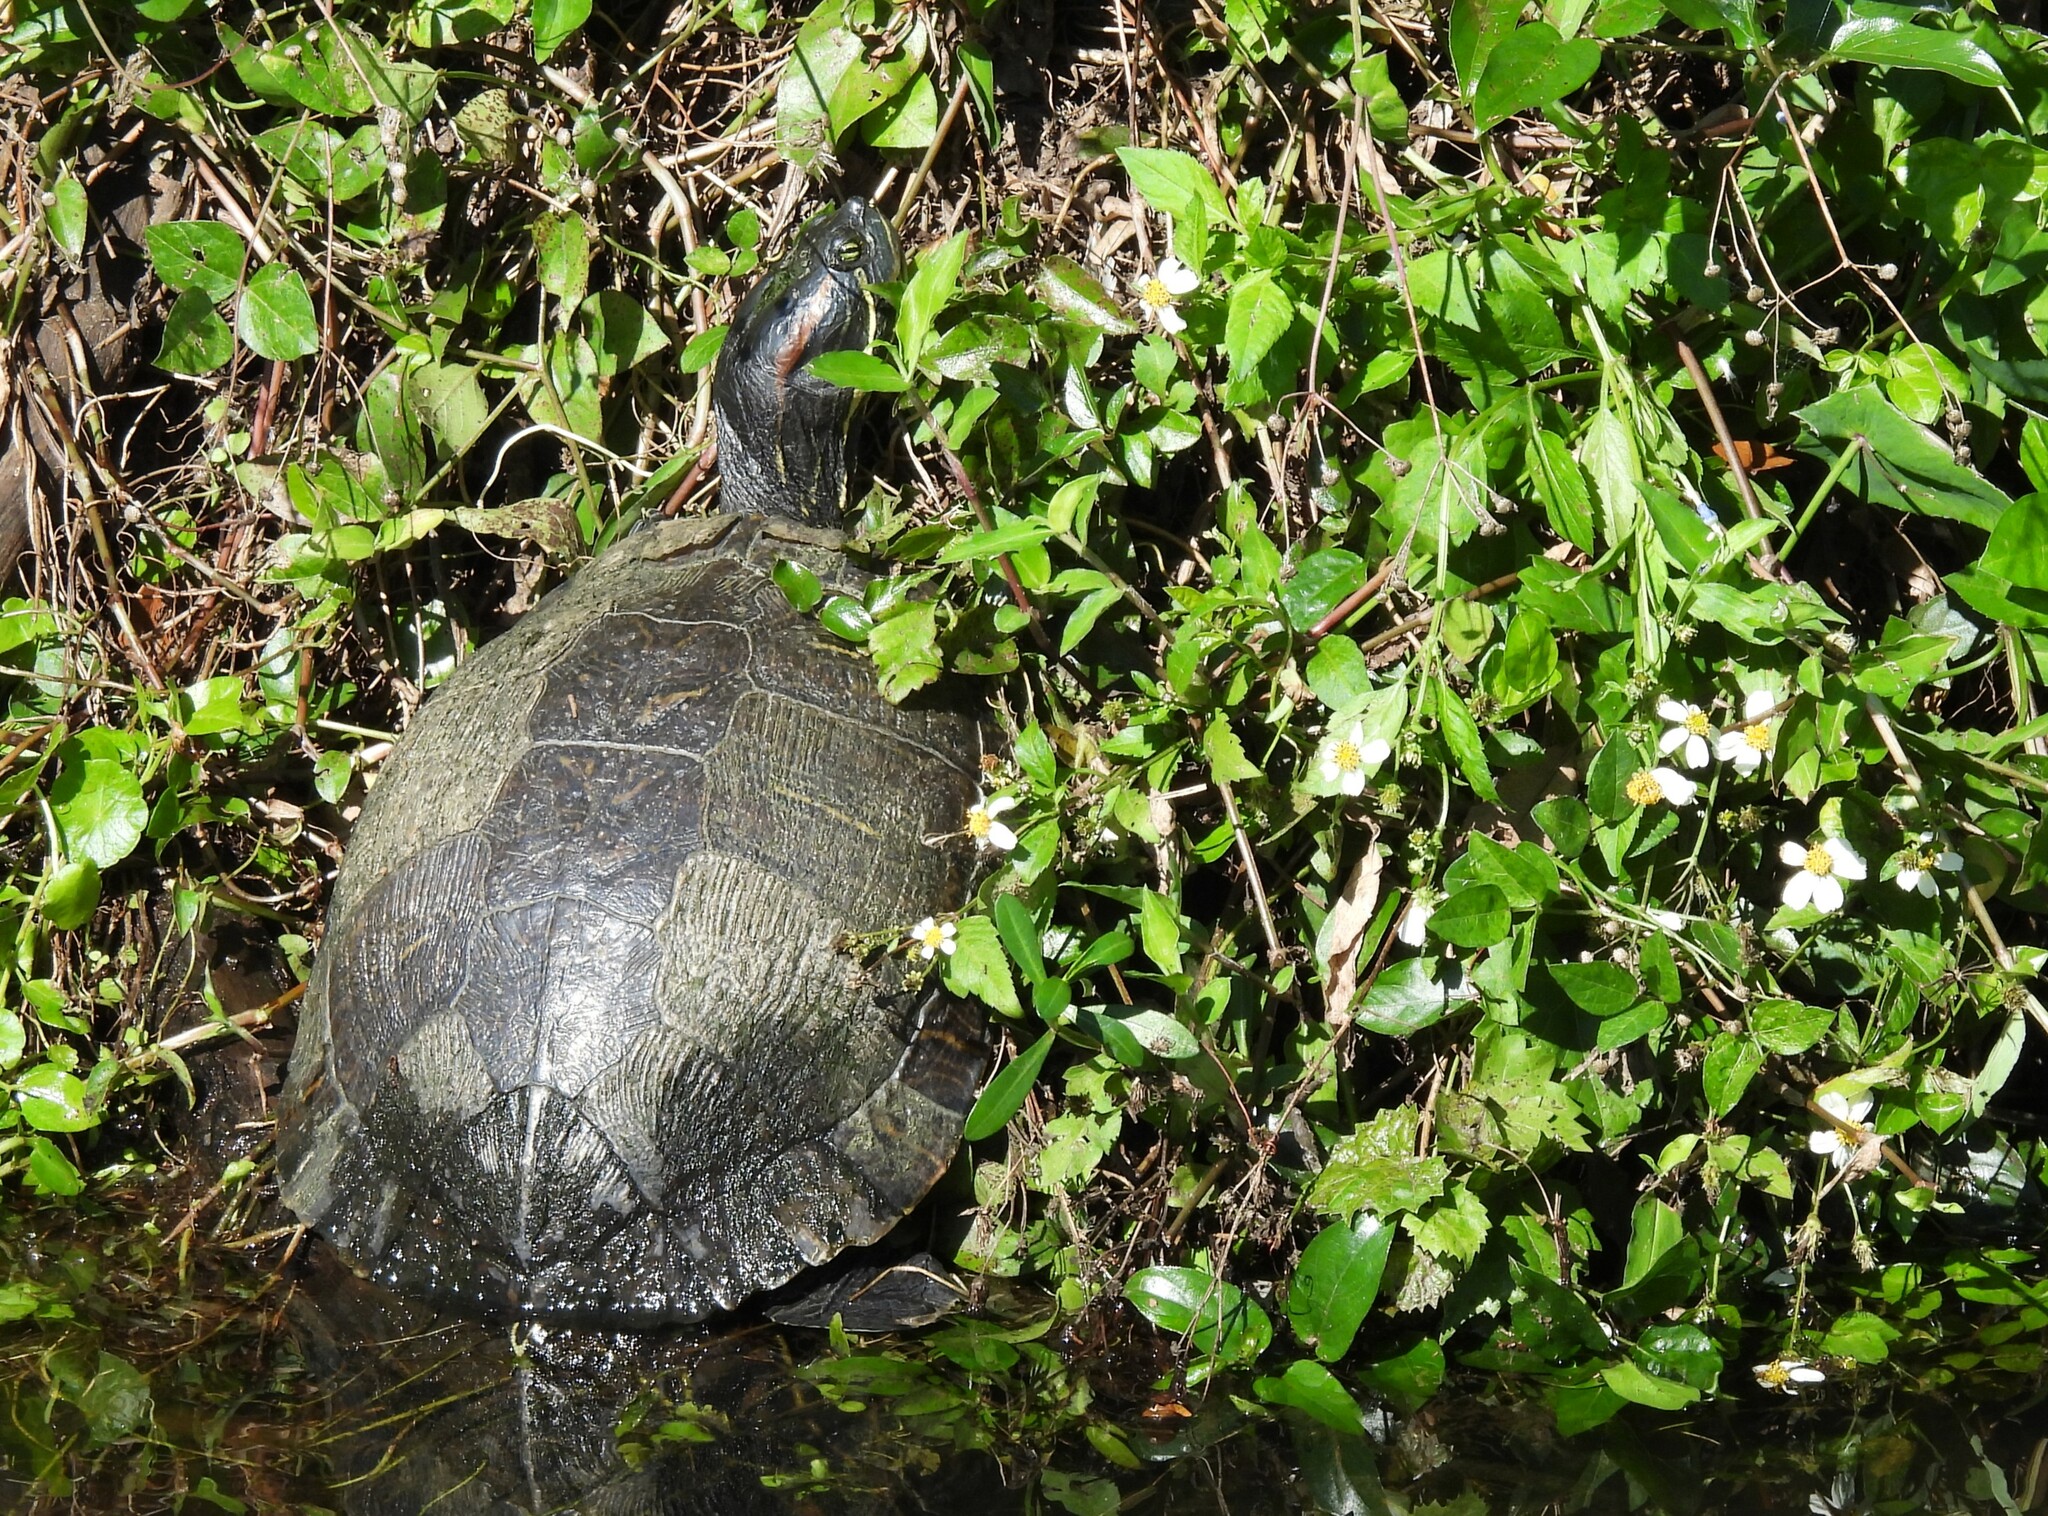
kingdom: Animalia
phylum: Chordata
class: Testudines
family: Emydidae
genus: Trachemys
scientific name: Trachemys scripta
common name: Slider
